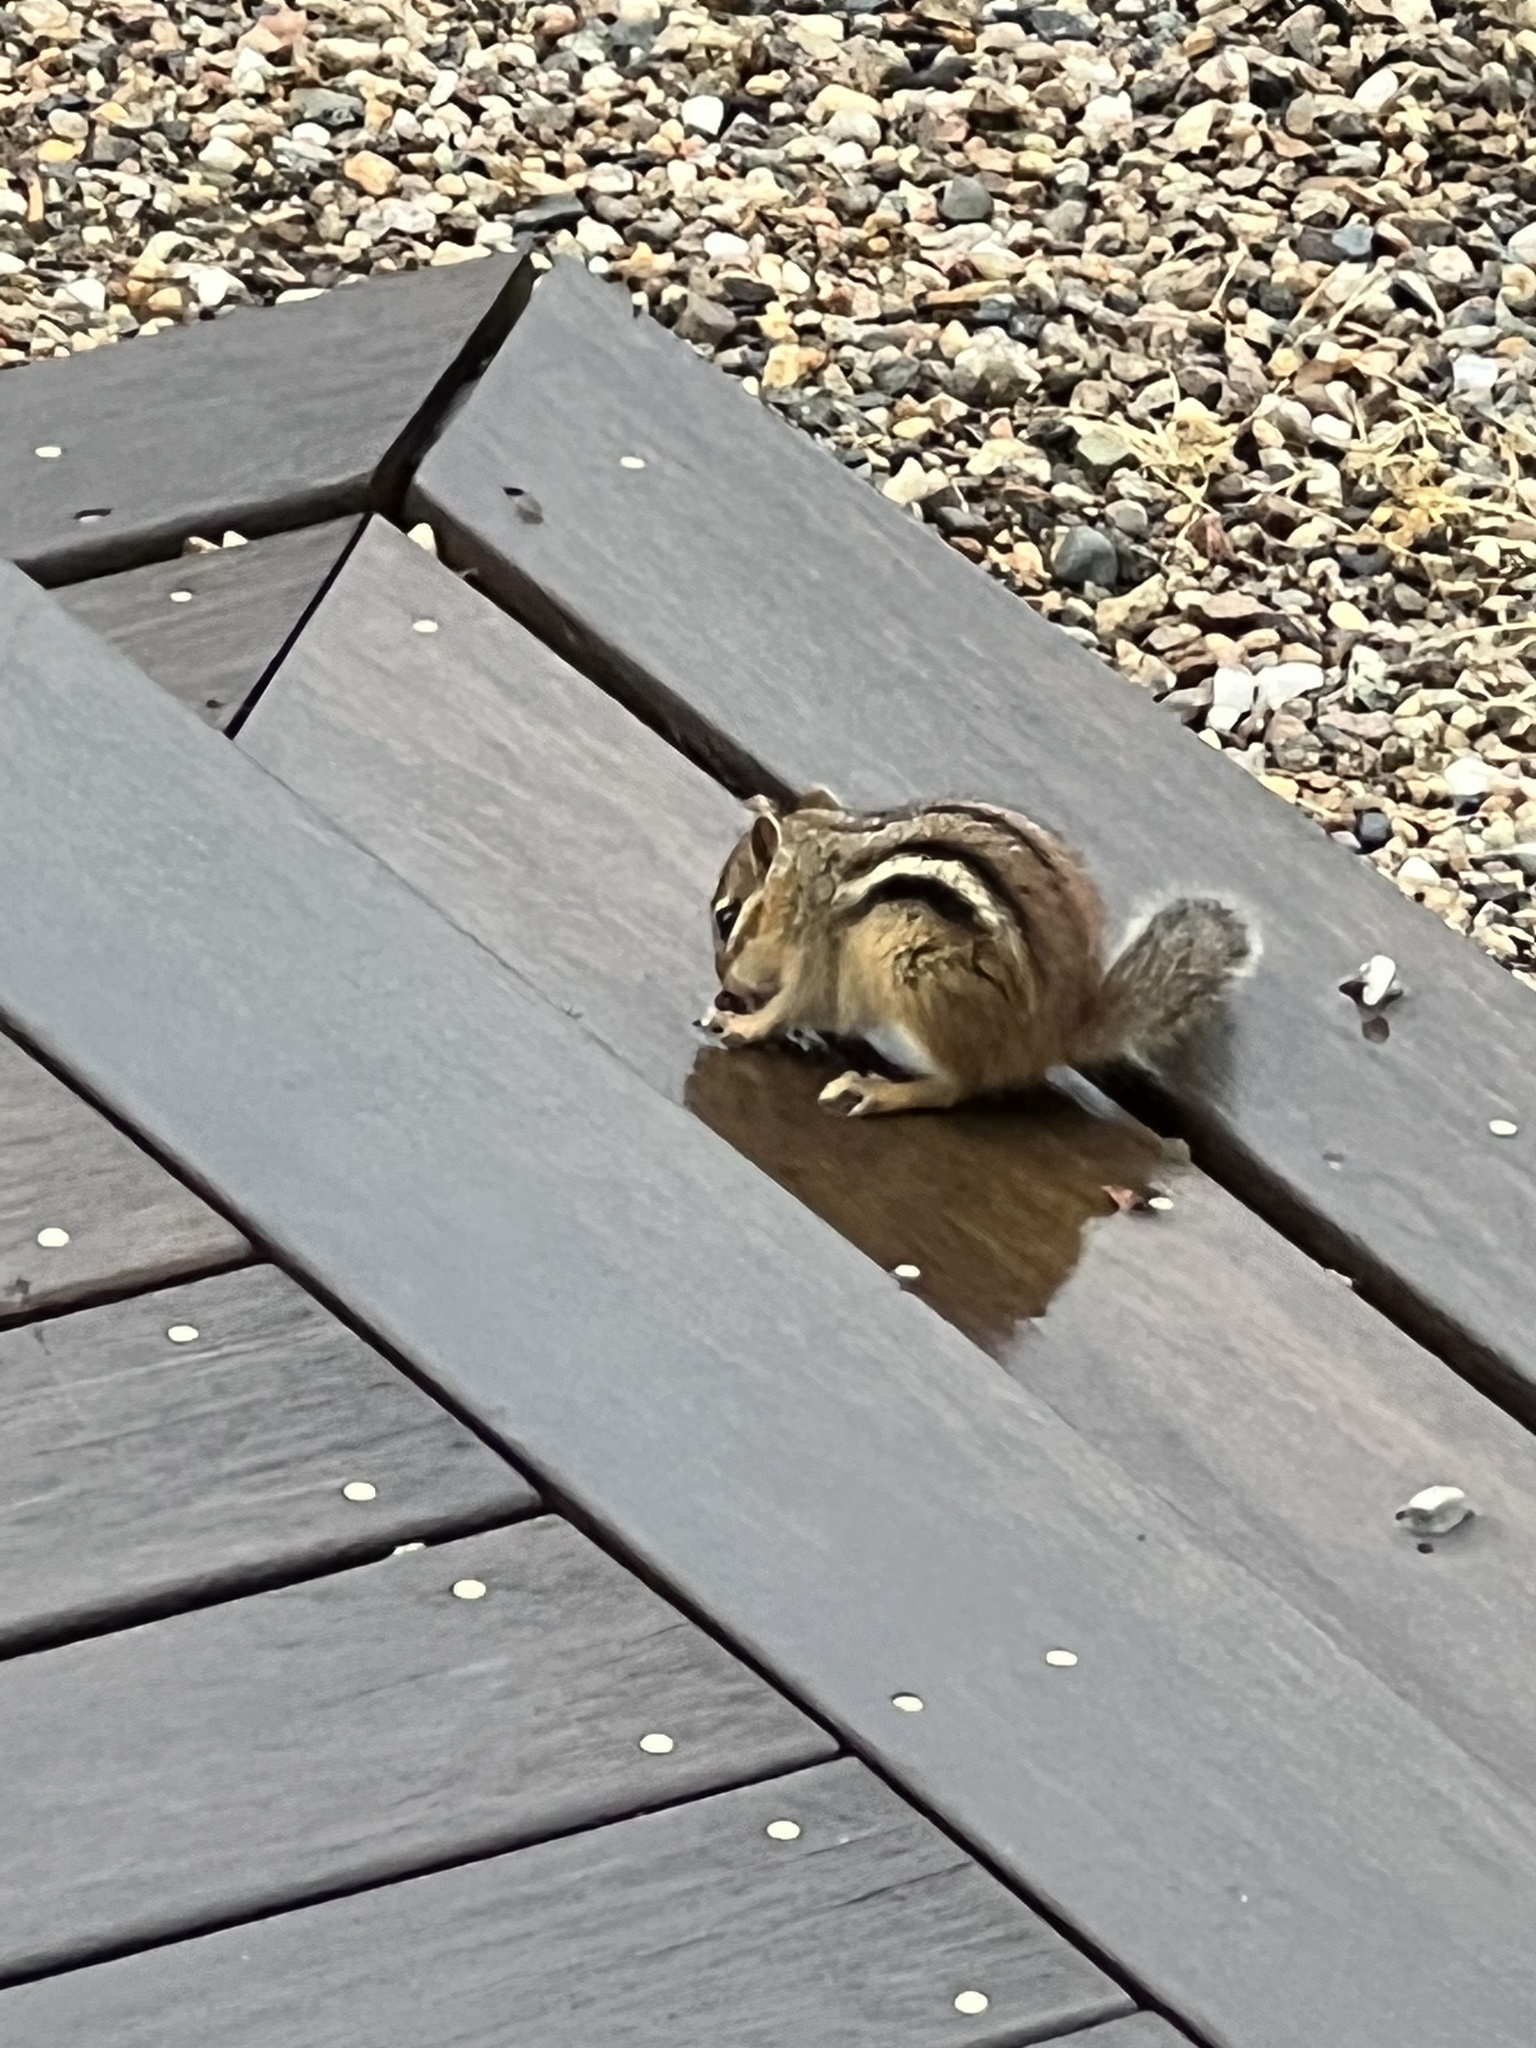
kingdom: Animalia
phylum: Chordata
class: Mammalia
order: Rodentia
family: Sciuridae
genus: Tamias
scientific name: Tamias striatus
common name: Eastern chipmunk
